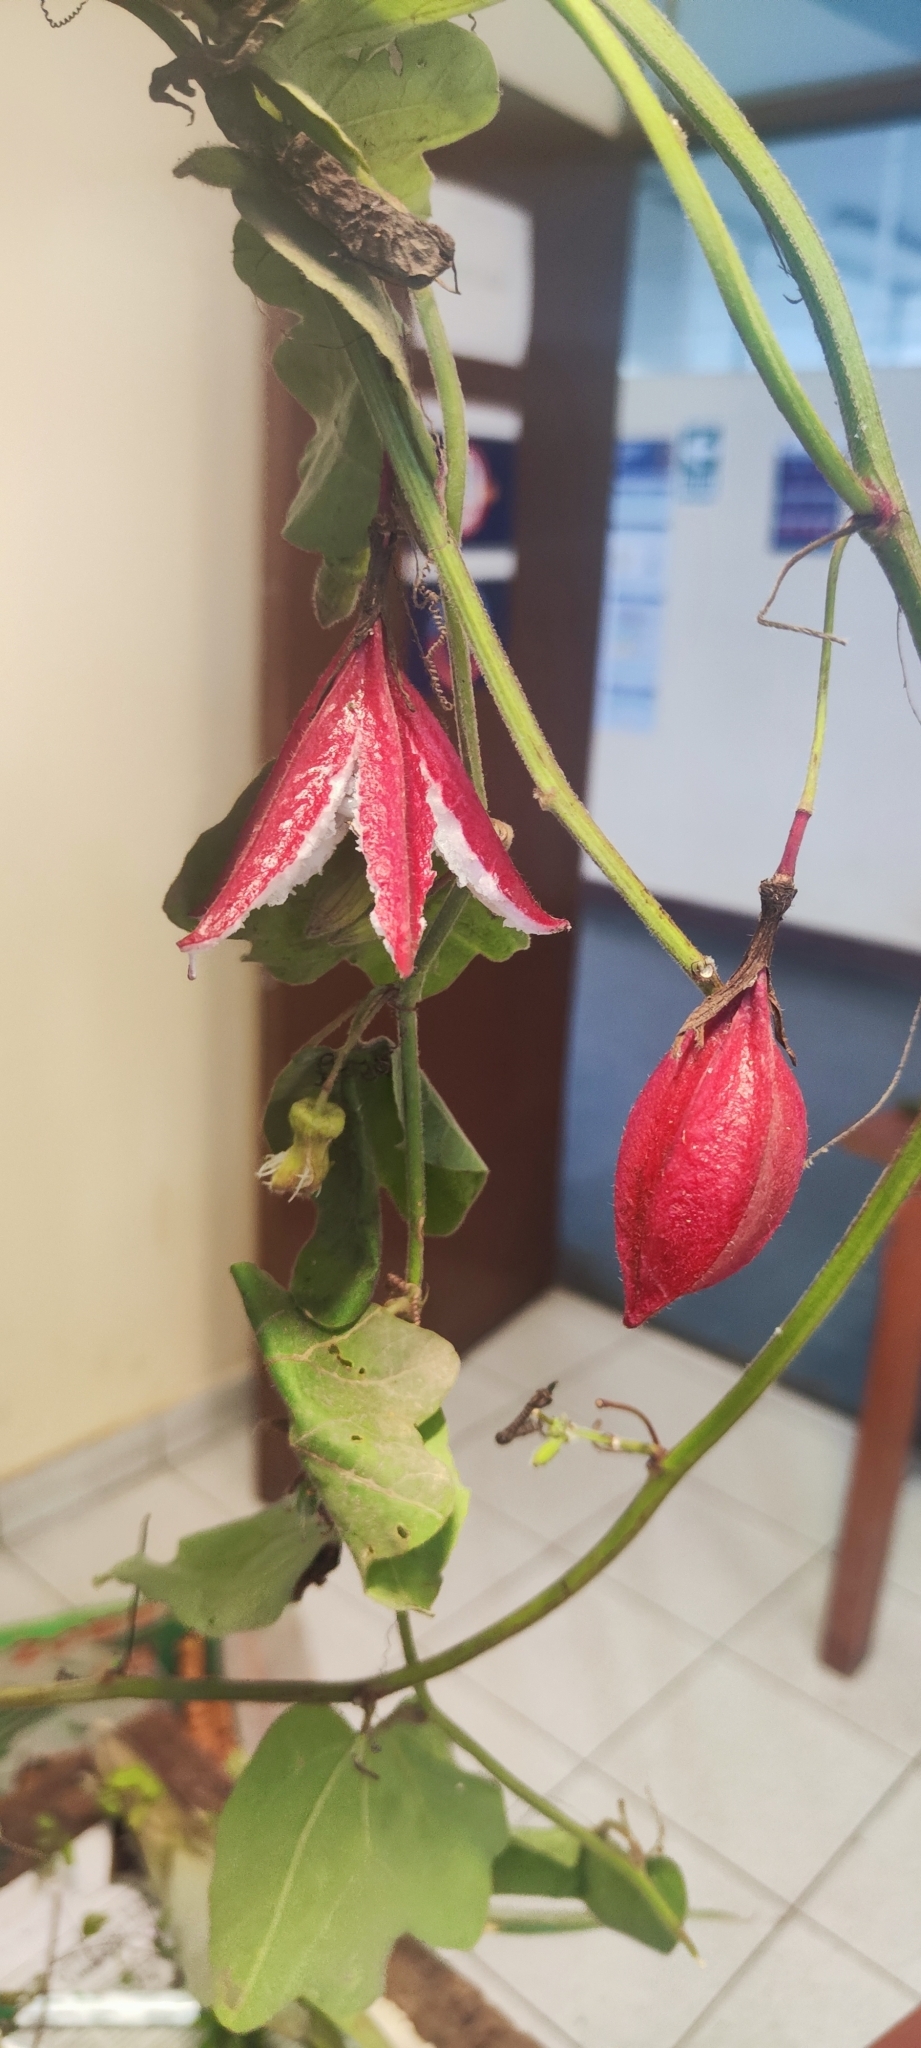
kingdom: Plantae
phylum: Tracheophyta
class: Magnoliopsida
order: Malpighiales
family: Passifloraceae
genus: Passiflora
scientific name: Passiflora cisnana
